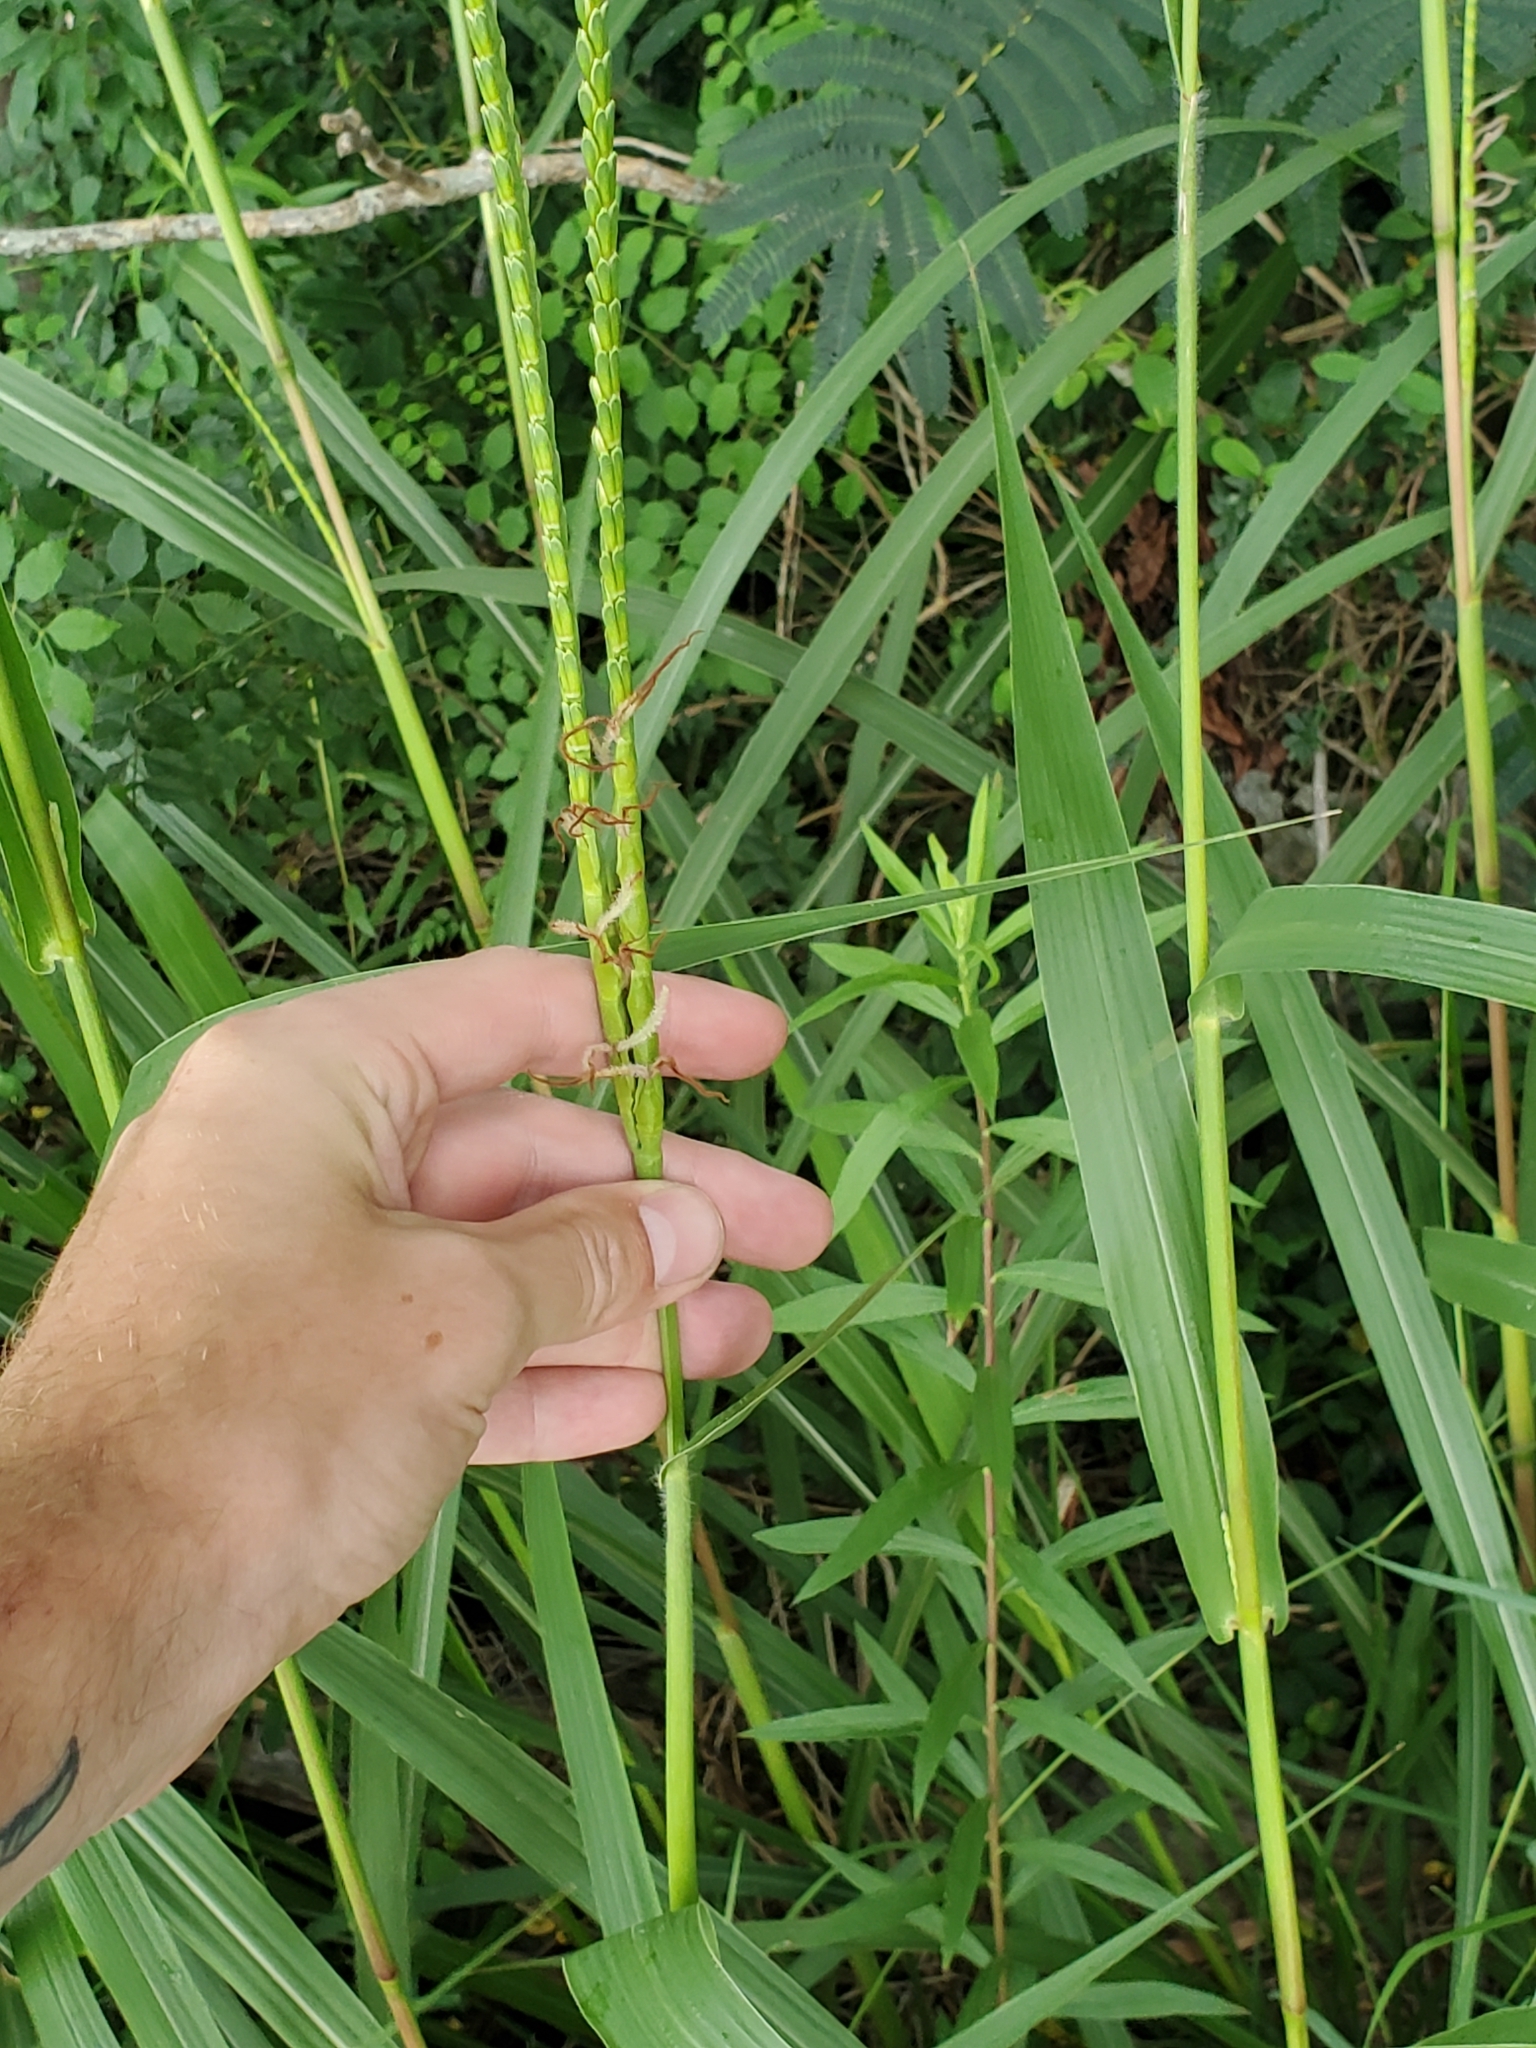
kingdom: Plantae
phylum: Tracheophyta
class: Liliopsida
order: Poales
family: Poaceae
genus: Tripsacum
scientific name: Tripsacum dactyloides
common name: Buffalo-grass
